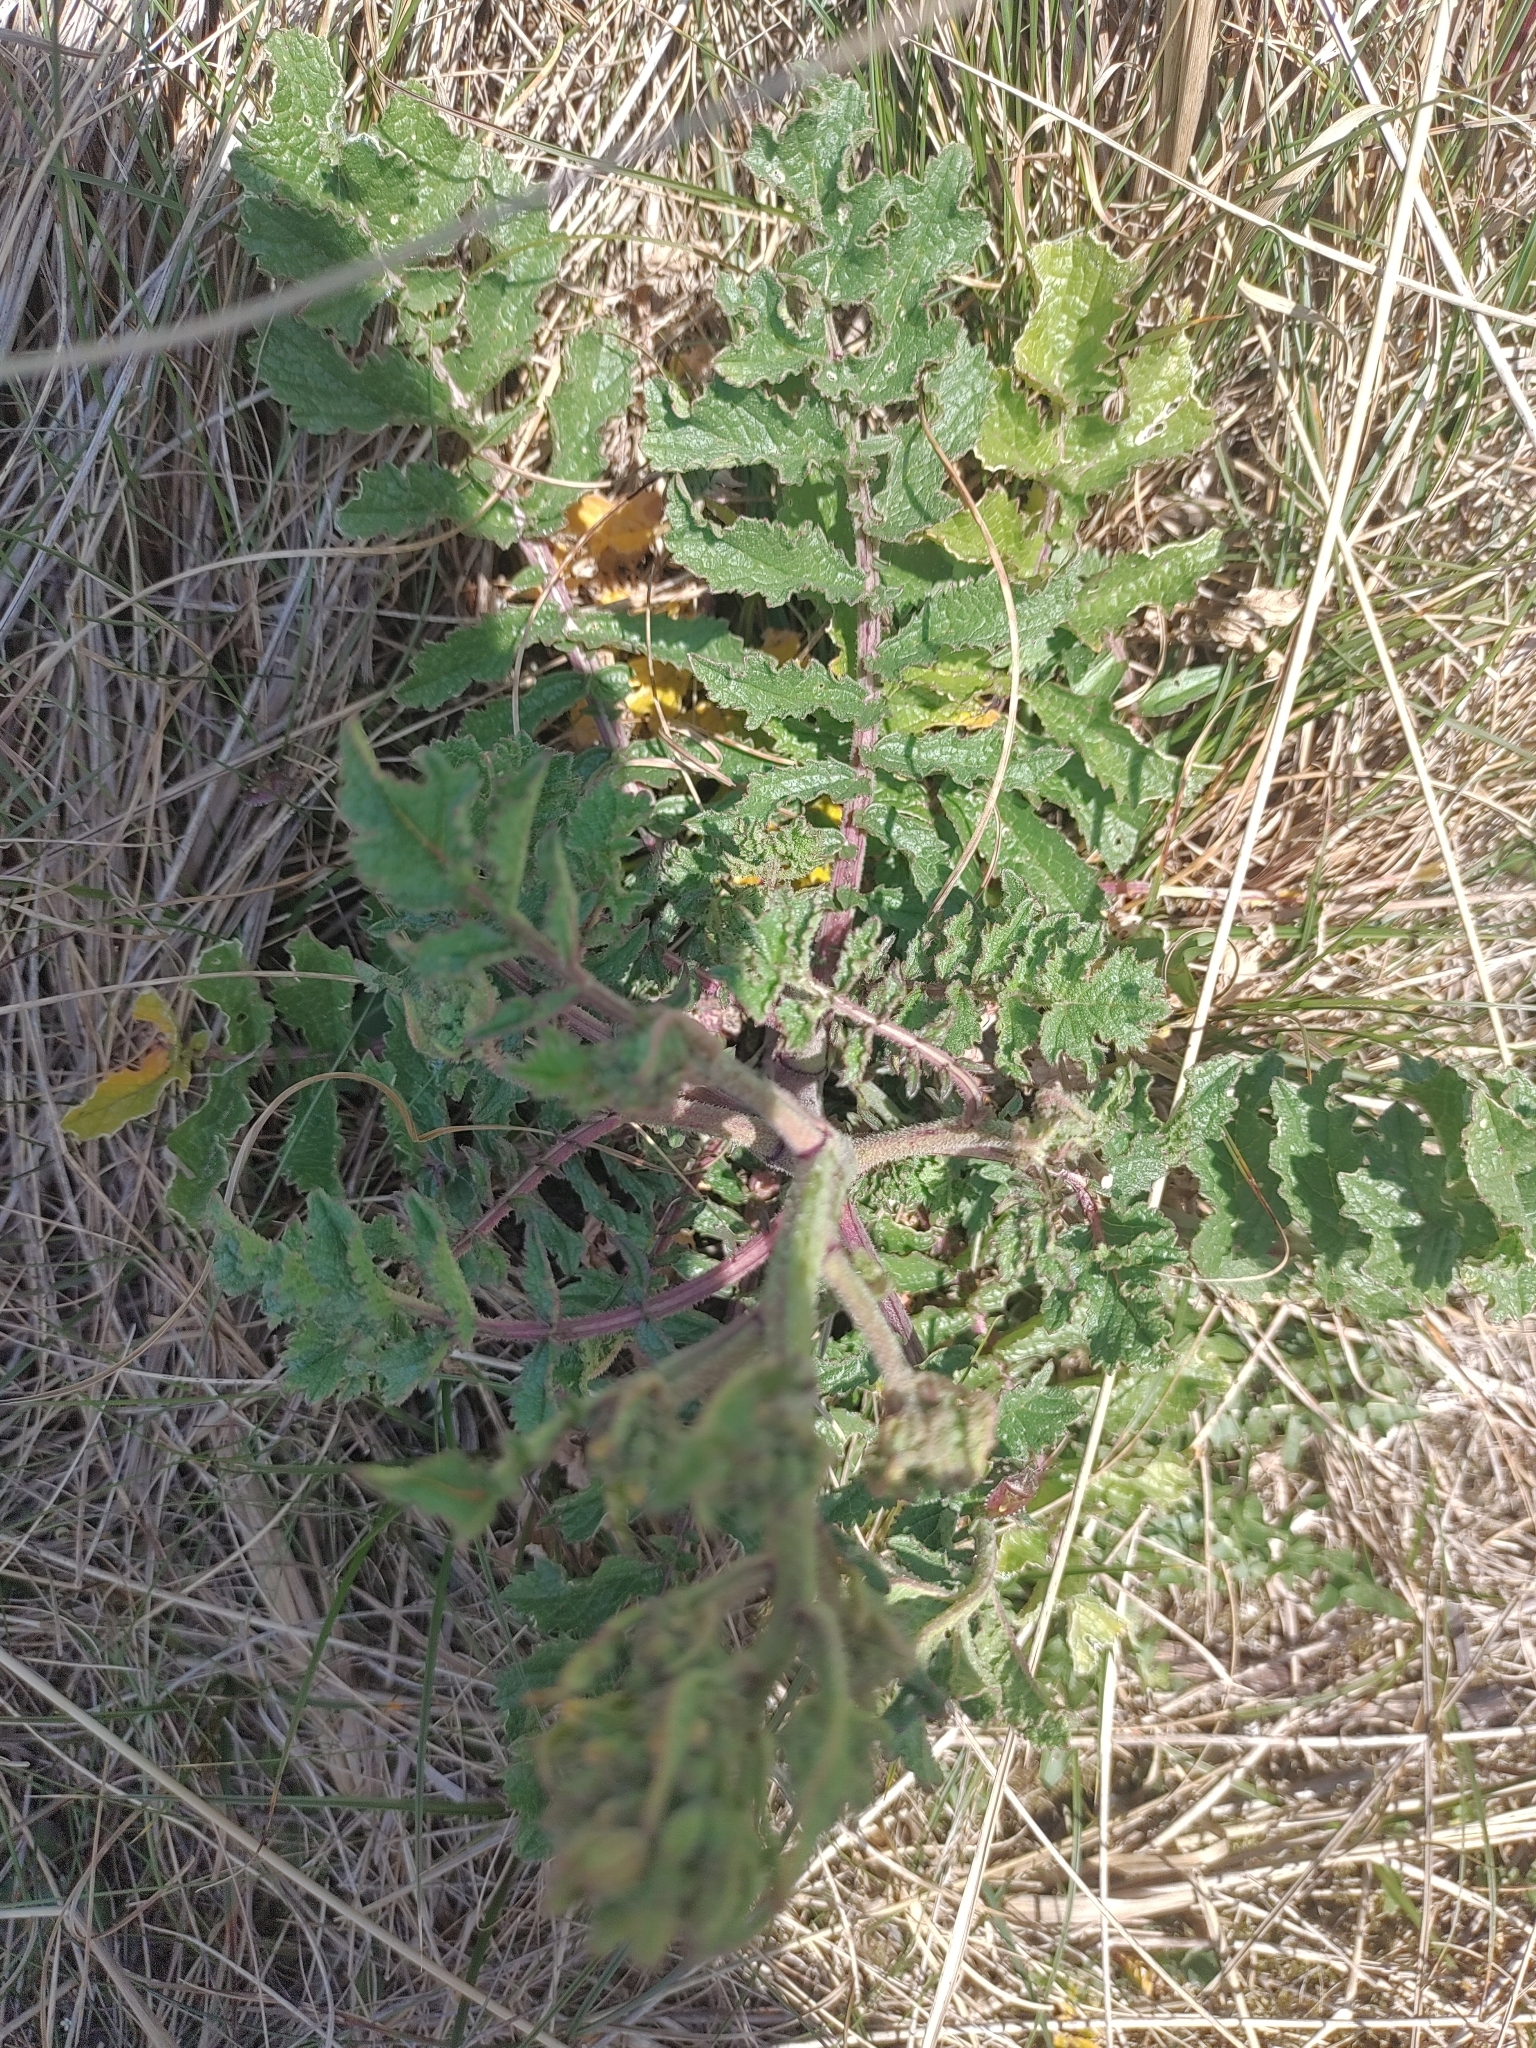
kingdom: Plantae
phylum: Tracheophyta
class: Magnoliopsida
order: Brassicales
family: Brassicaceae
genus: Raphanus
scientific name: Raphanus raphanistrum
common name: Wild radish
